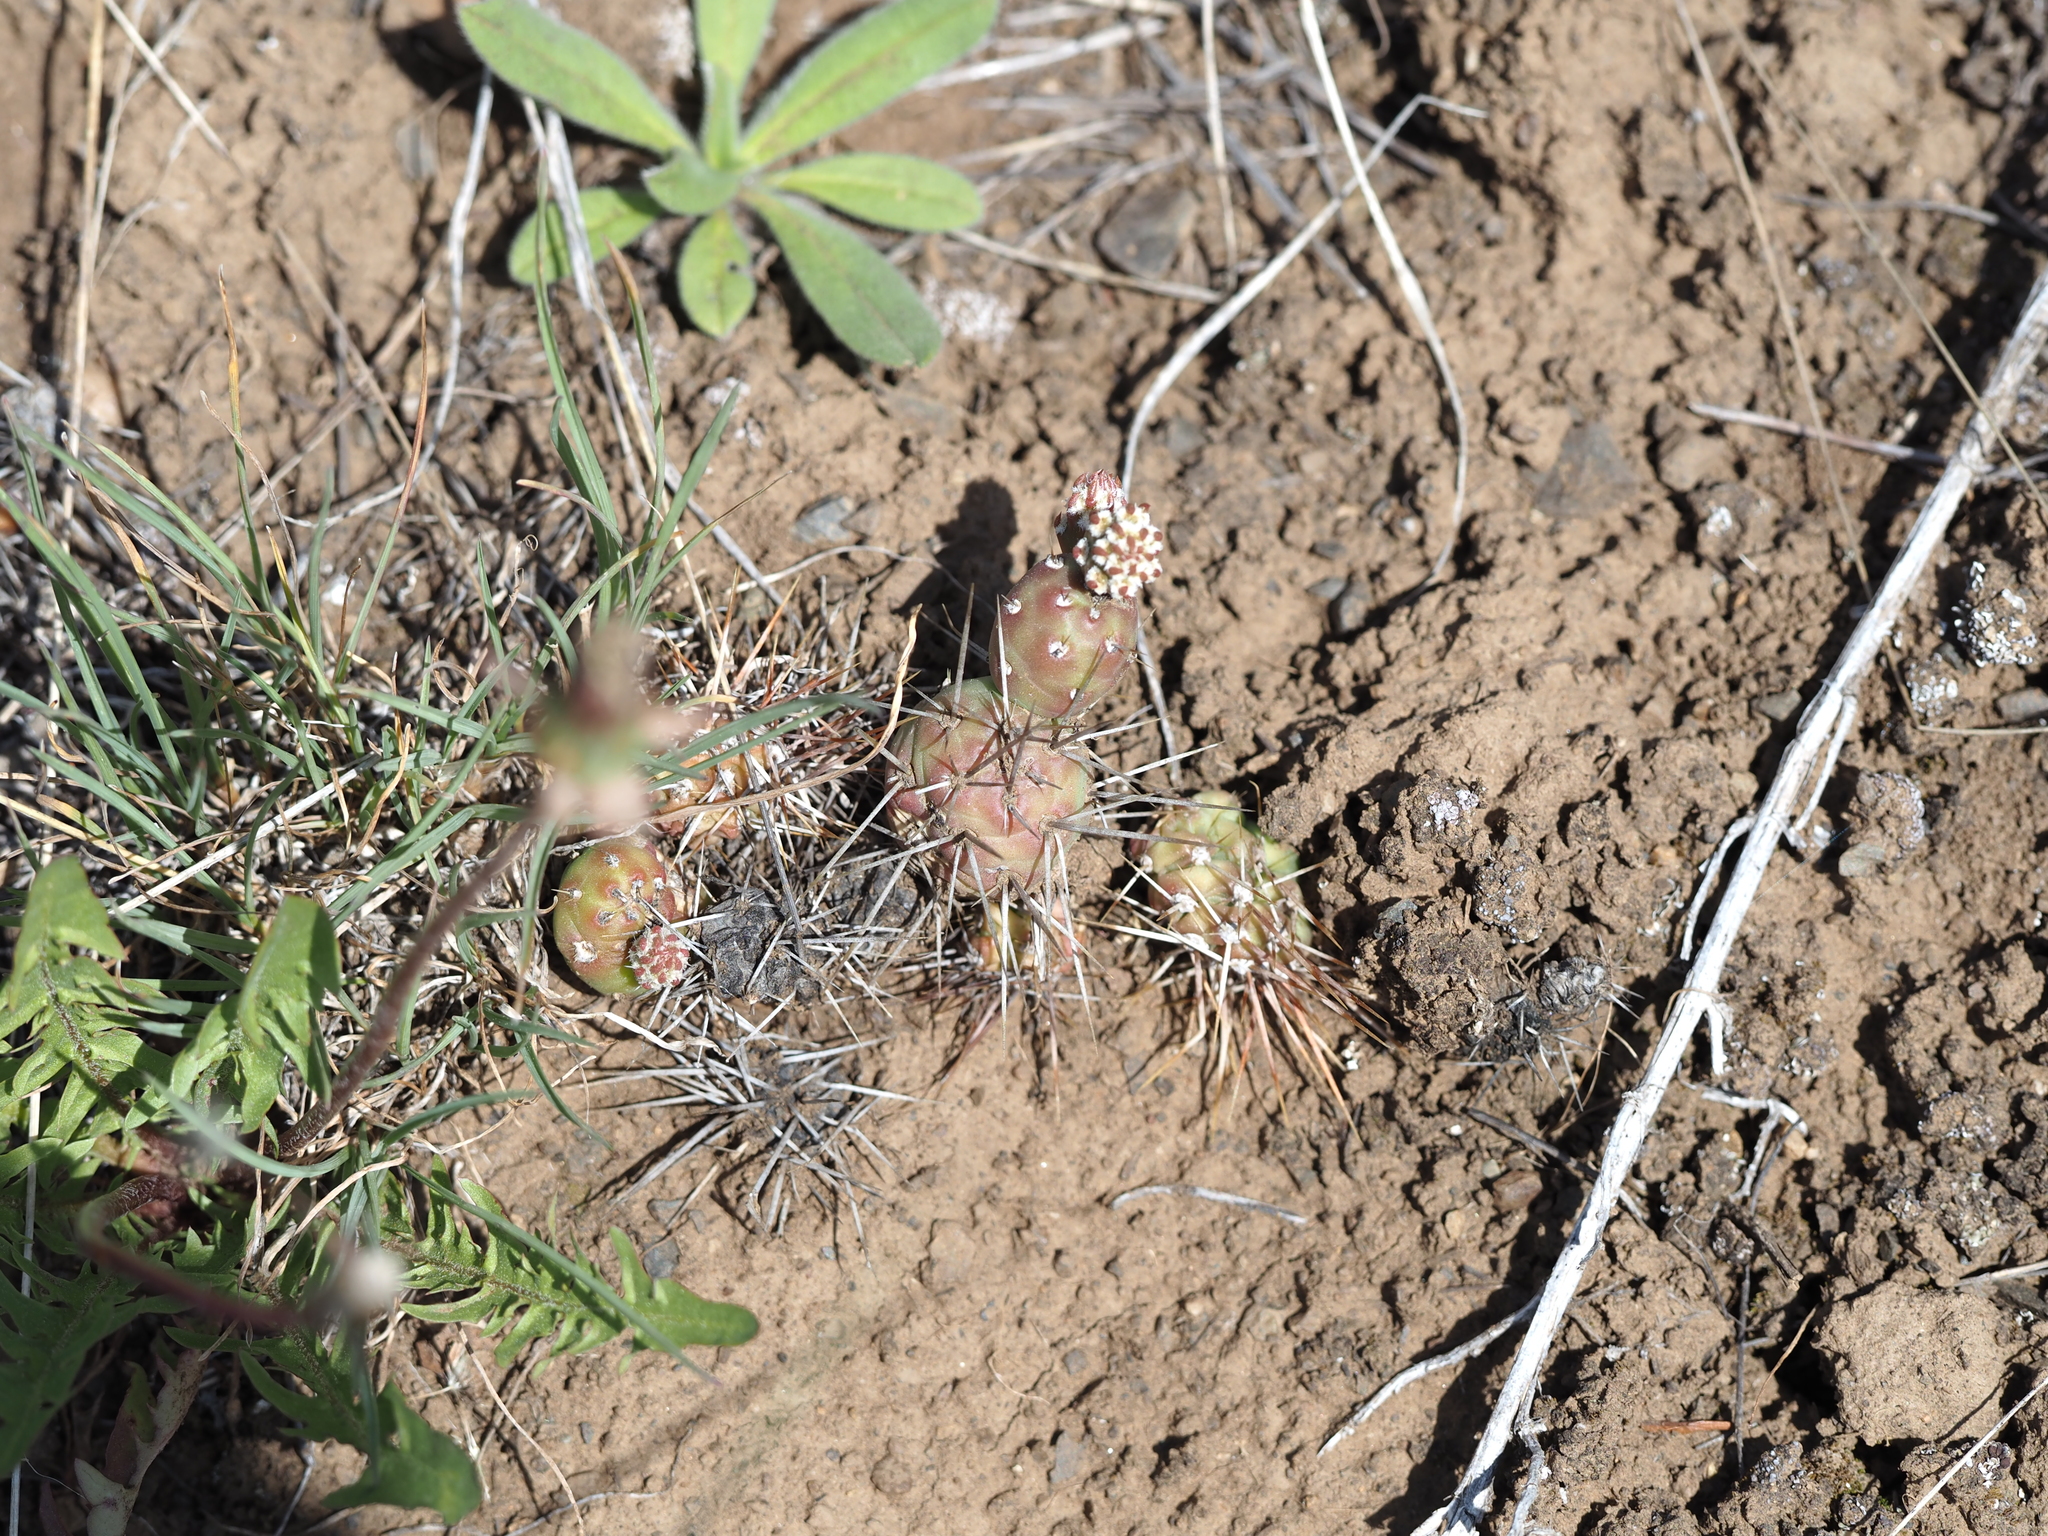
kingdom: Plantae
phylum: Tracheophyta
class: Magnoliopsida
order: Caryophyllales
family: Cactaceae
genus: Opuntia
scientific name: Opuntia fragilis
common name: Brittle cactus
